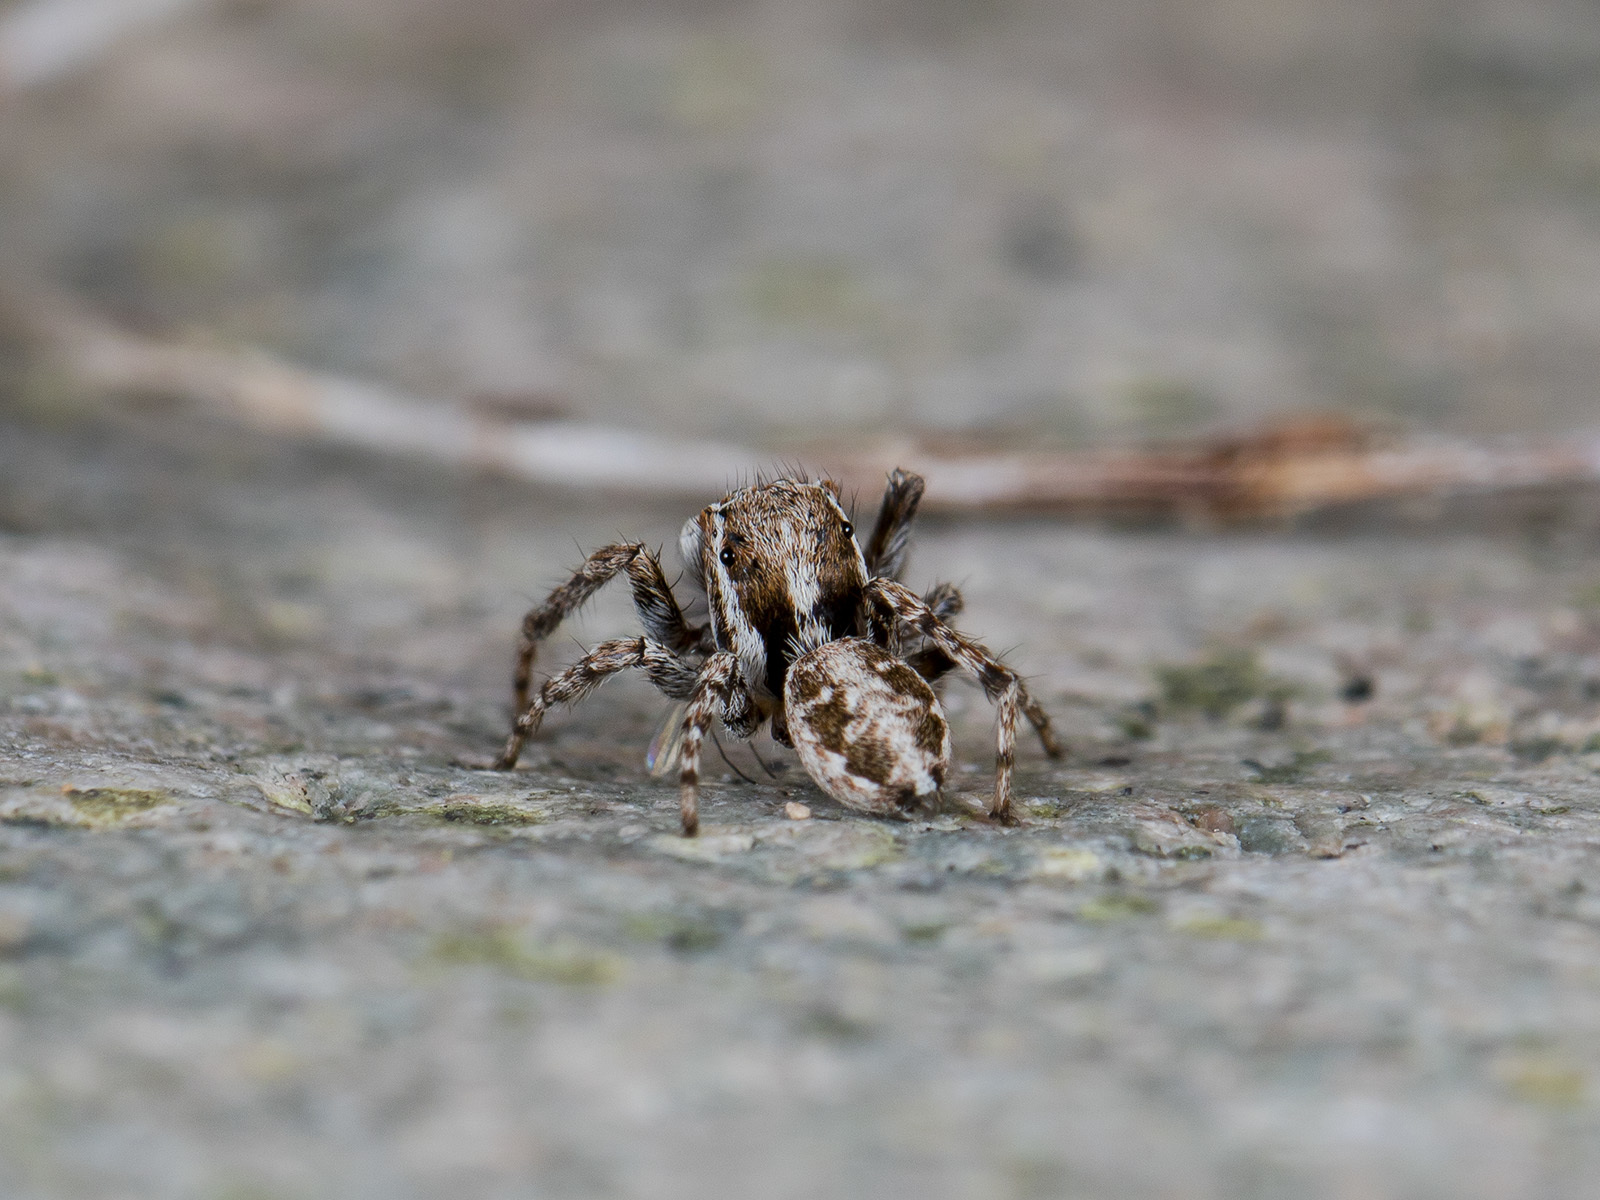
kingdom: Animalia
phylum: Arthropoda
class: Arachnida
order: Araneae
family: Salticidae
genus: Attulus
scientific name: Attulus avocator
